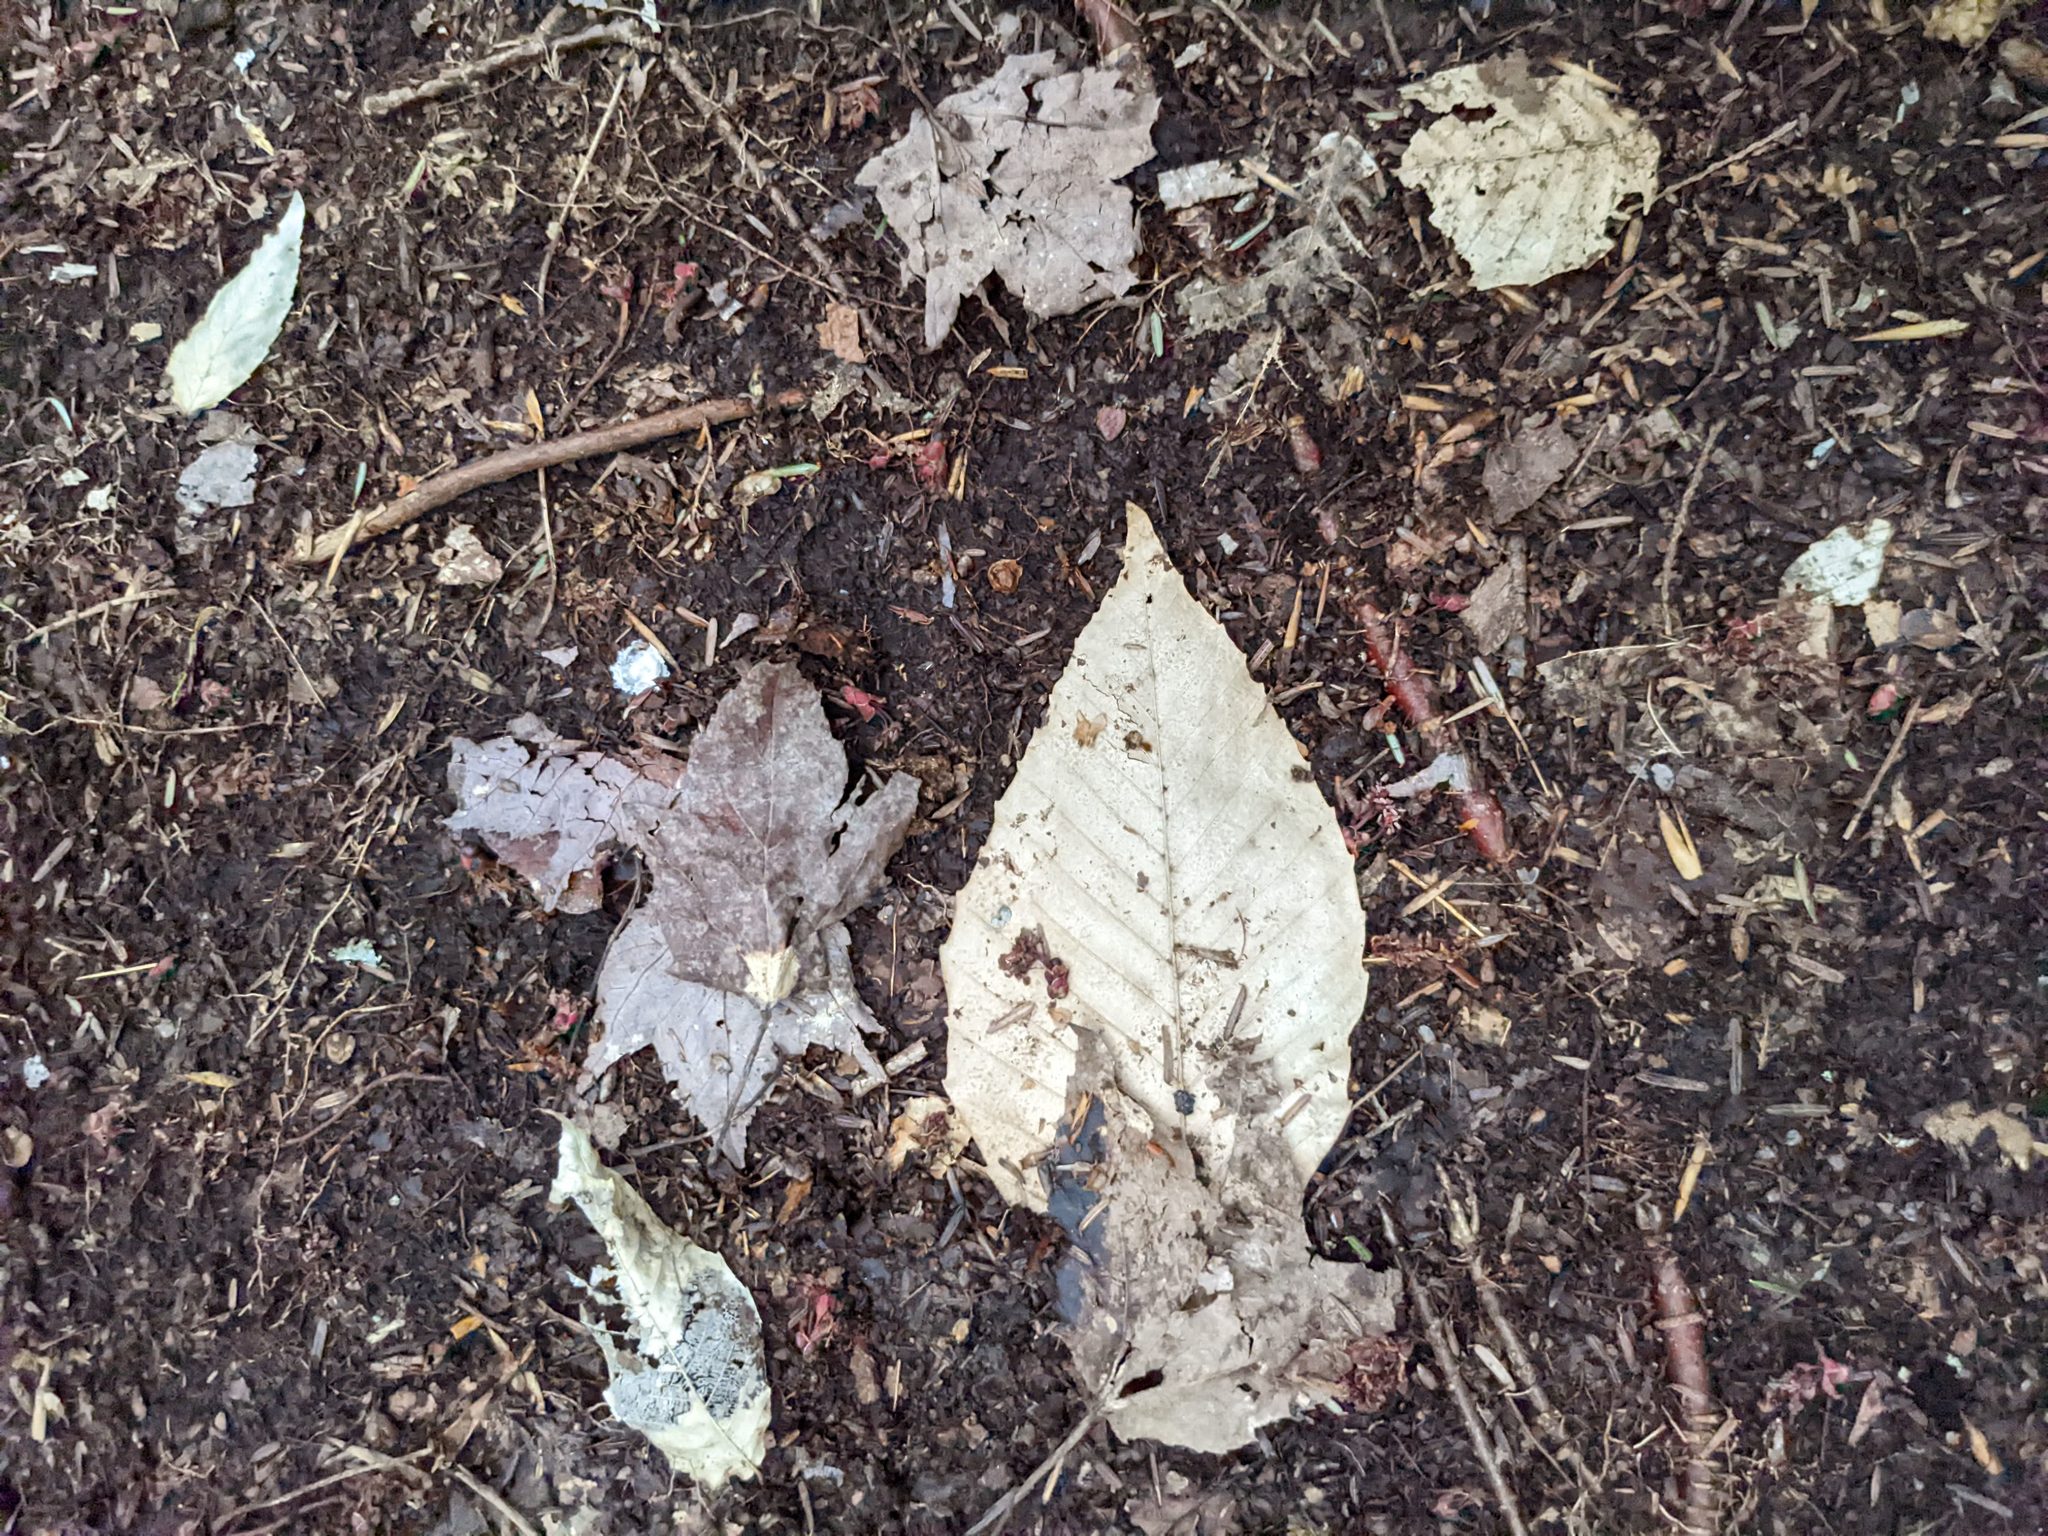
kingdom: Plantae
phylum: Tracheophyta
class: Magnoliopsida
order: Fagales
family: Fagaceae
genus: Fagus
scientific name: Fagus grandifolia
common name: American beech
